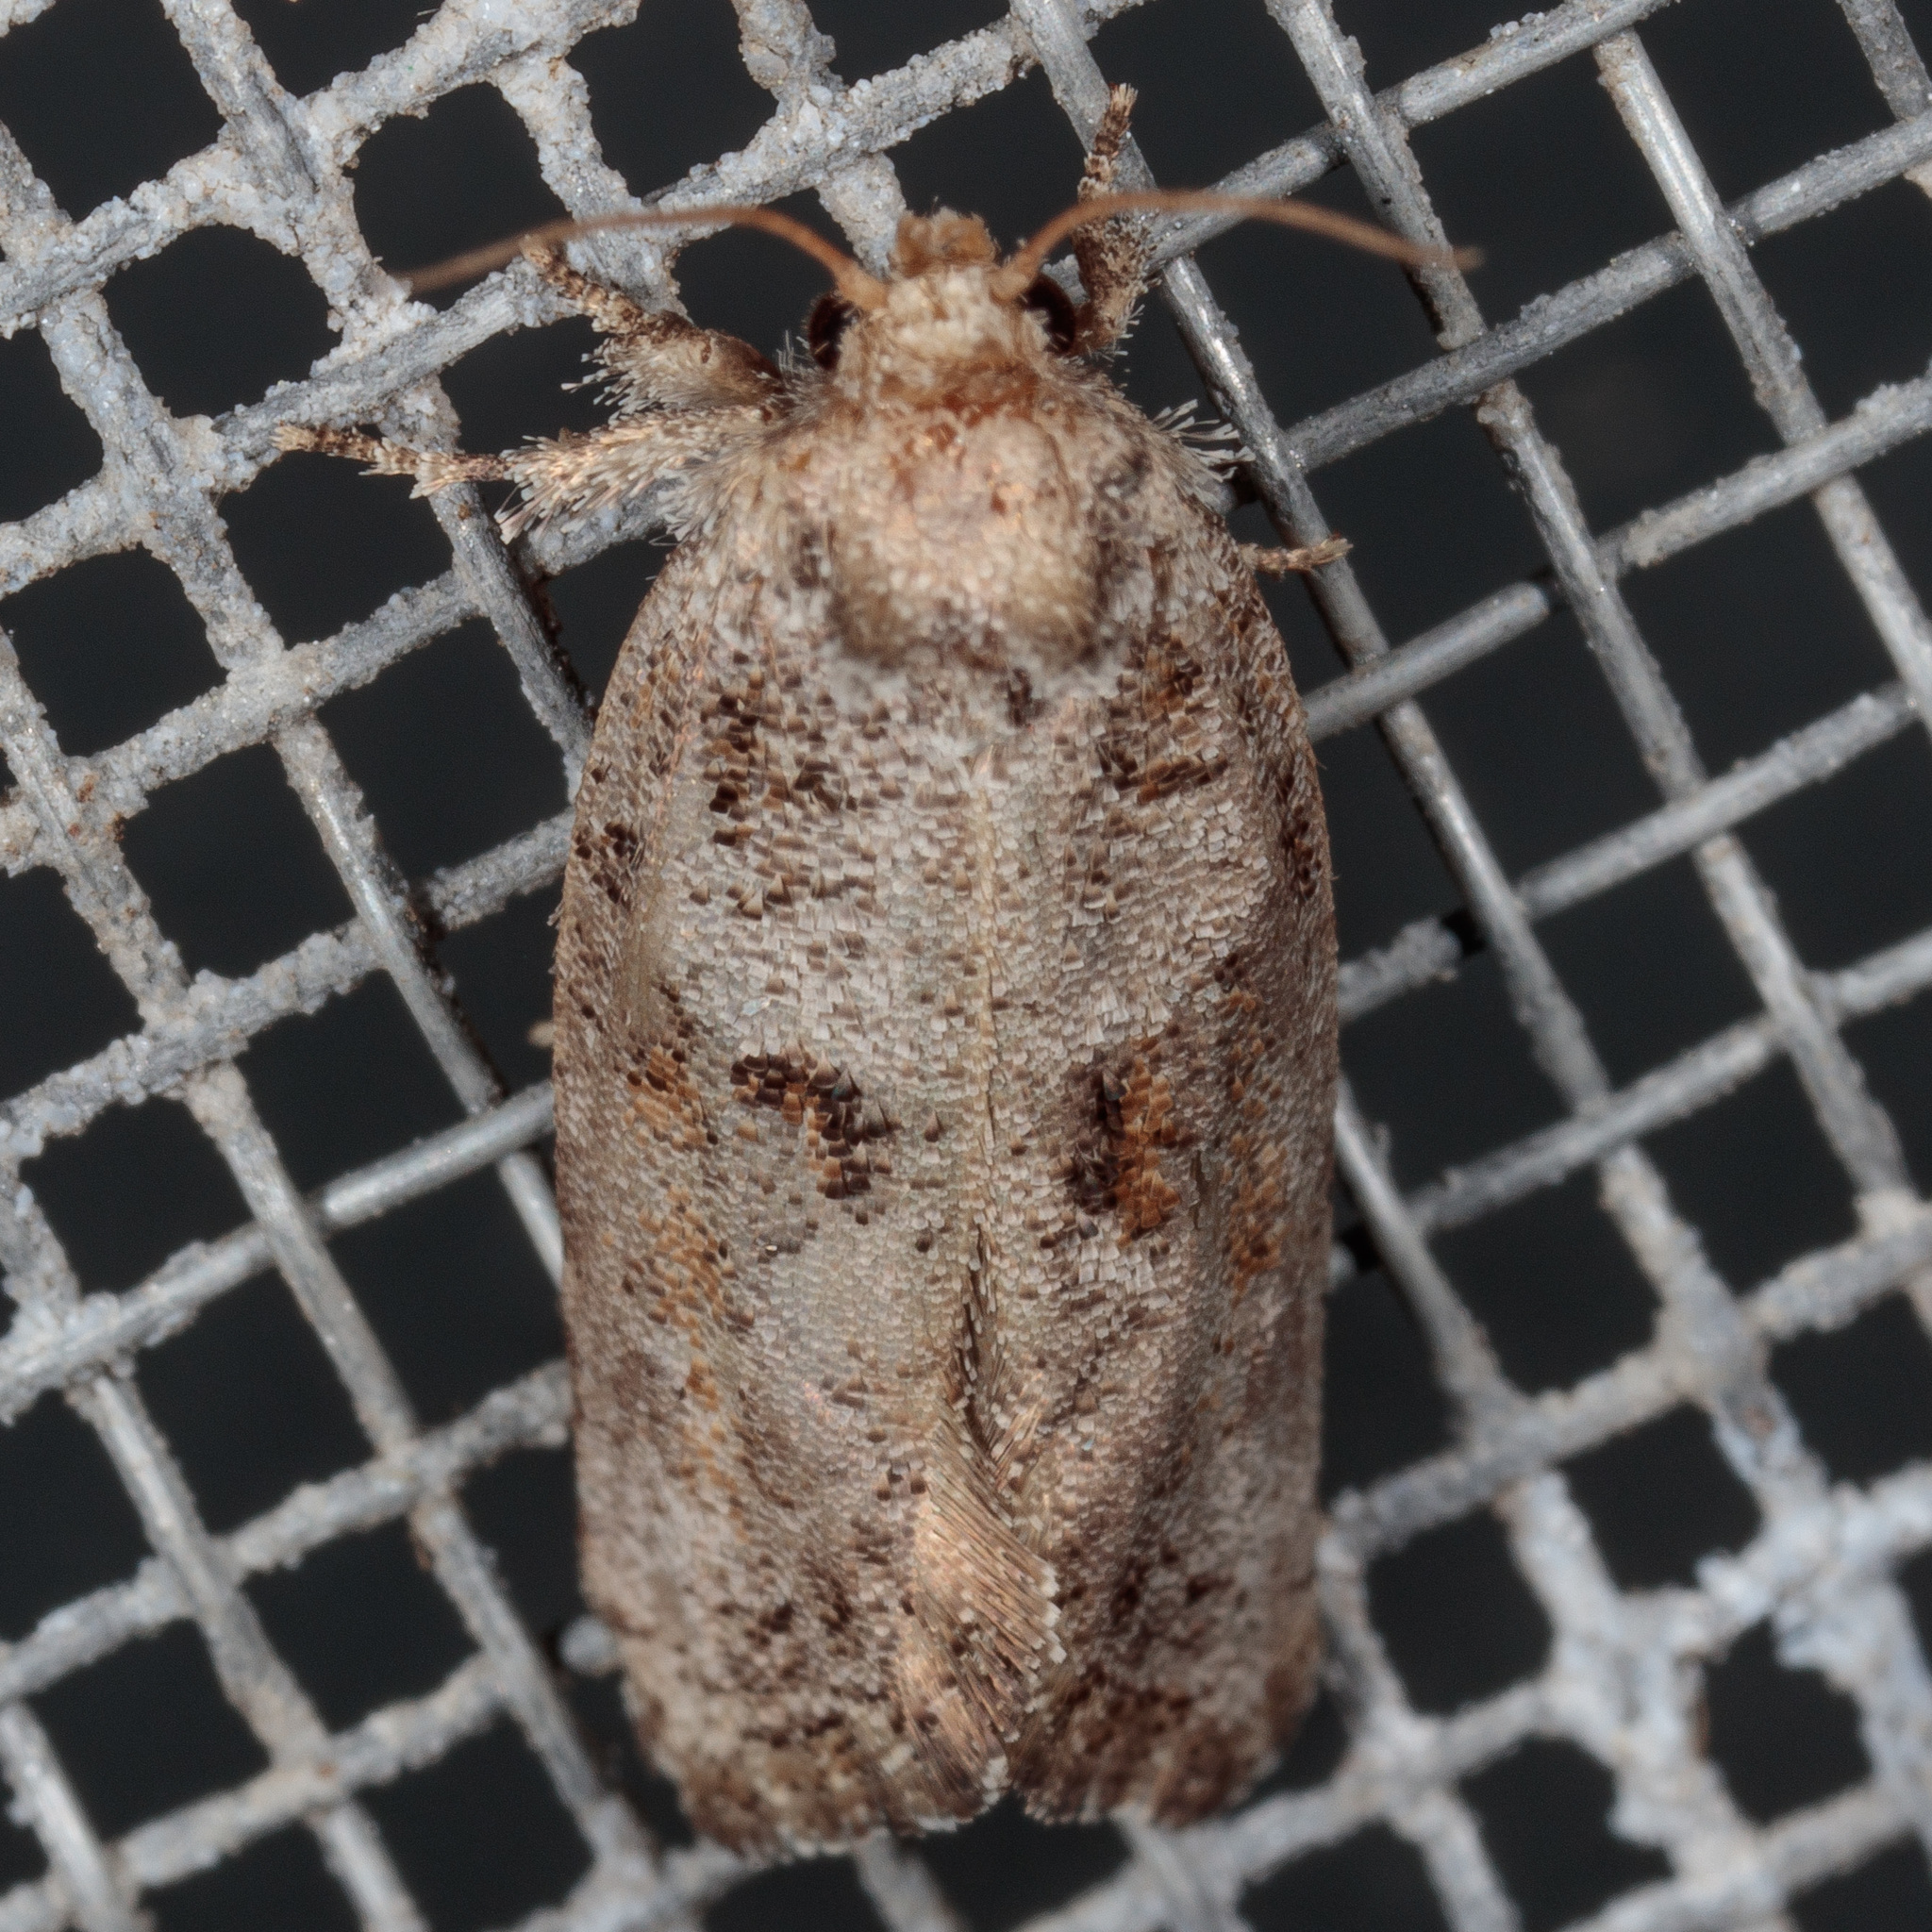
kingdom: Animalia
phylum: Arthropoda
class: Insecta
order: Lepidoptera
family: Tineidae
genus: Acrolophus
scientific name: Acrolophus piger
